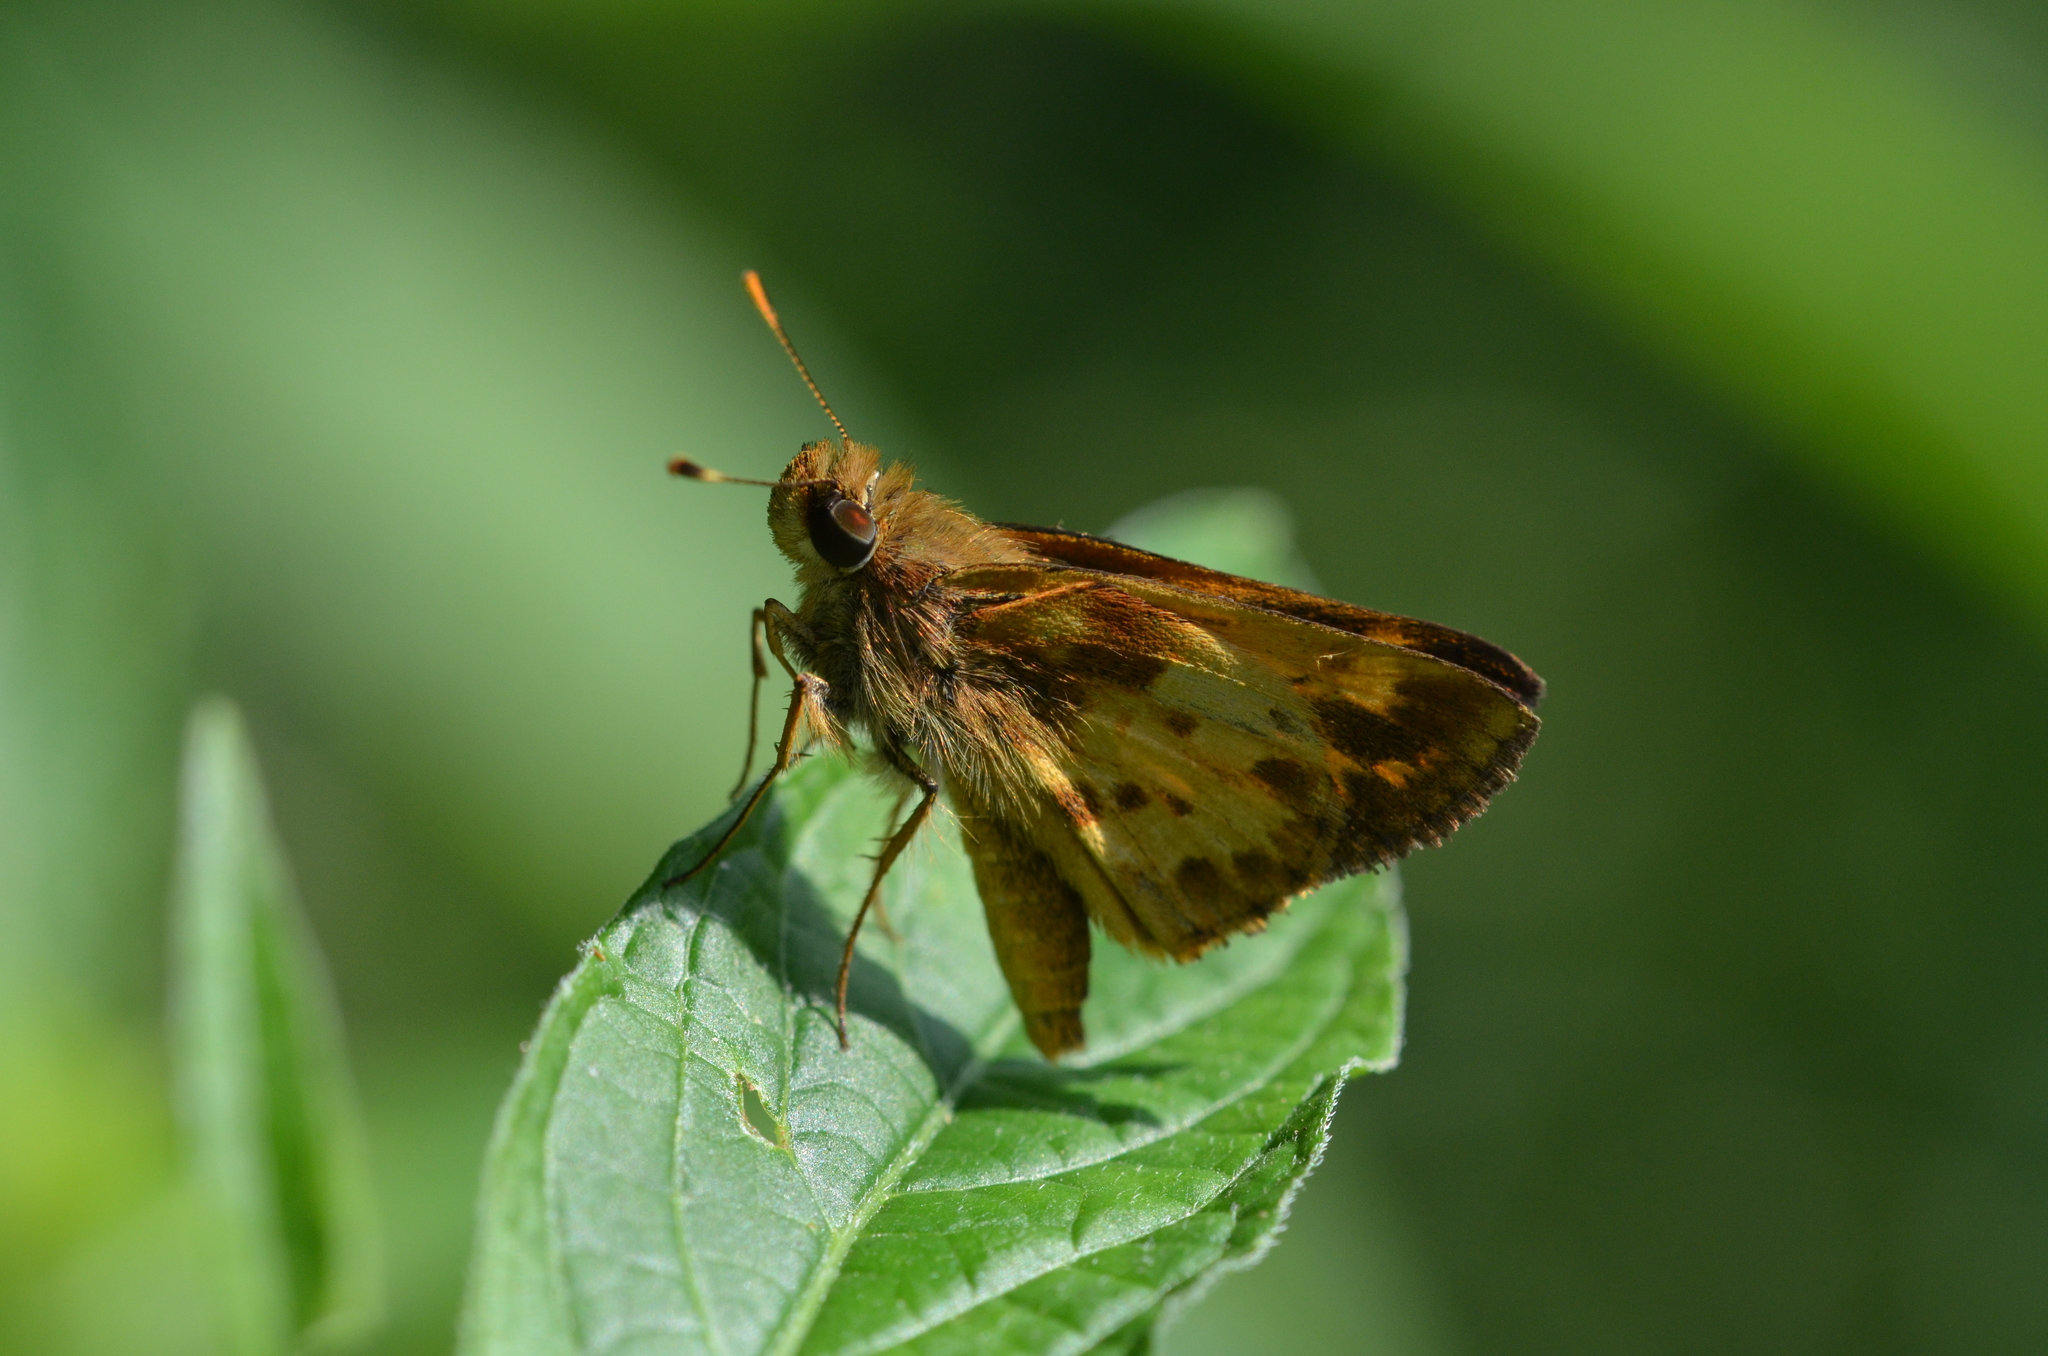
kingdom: Animalia
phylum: Arthropoda
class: Insecta
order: Lepidoptera
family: Hesperiidae
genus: Lon
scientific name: Lon zabulon
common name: Zabulon skipper
